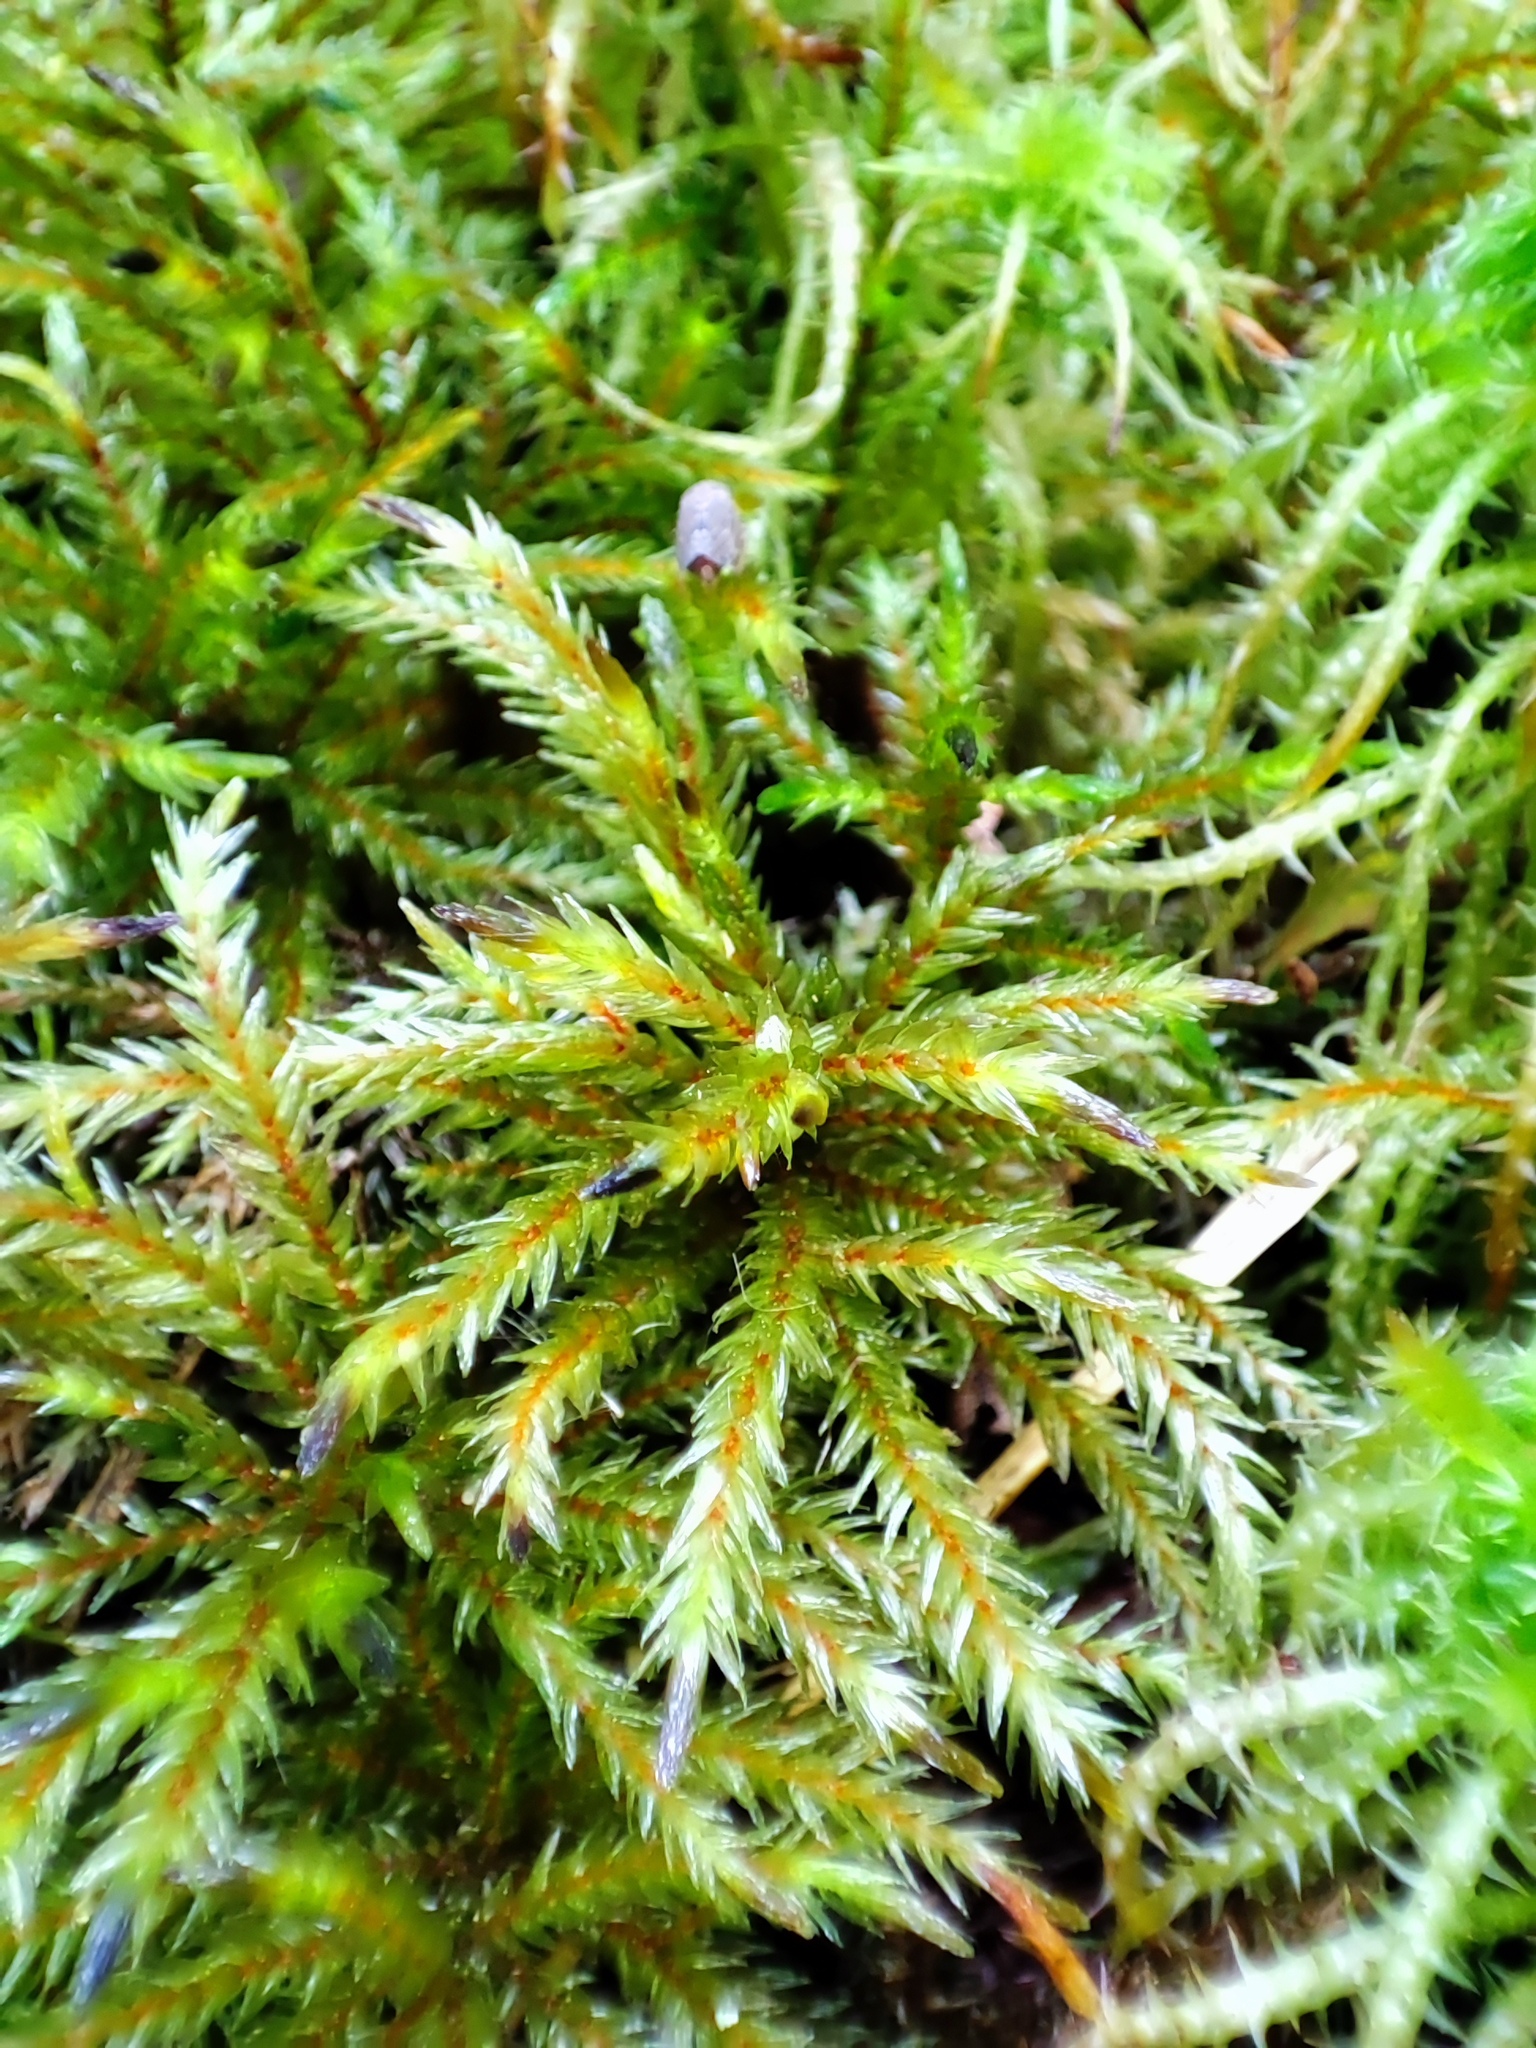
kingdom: Plantae
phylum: Bryophyta
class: Bryopsida
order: Hypnales
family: Climaciaceae
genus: Climacium
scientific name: Climacium dendroides
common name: Northern tree moss
